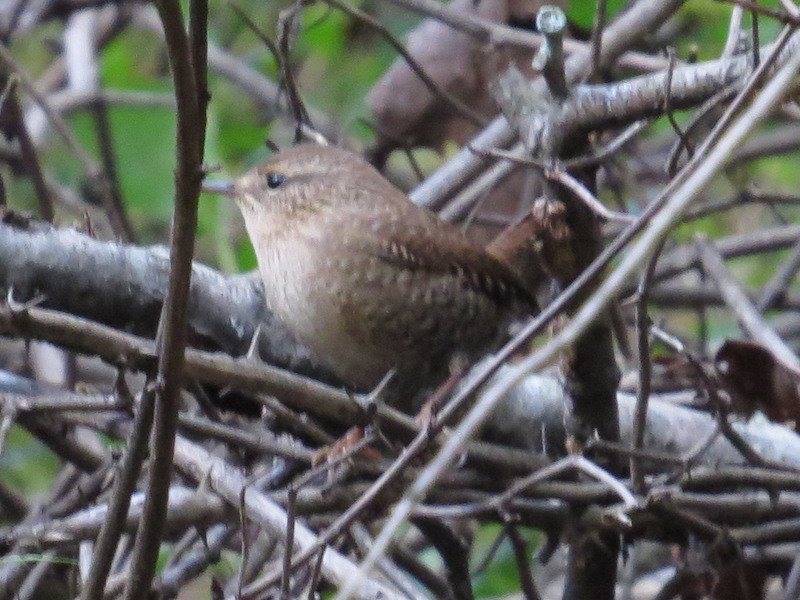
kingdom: Animalia
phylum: Chordata
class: Aves
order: Passeriformes
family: Troglodytidae
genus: Troglodytes
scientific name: Troglodytes hiemalis
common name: Winter wren
